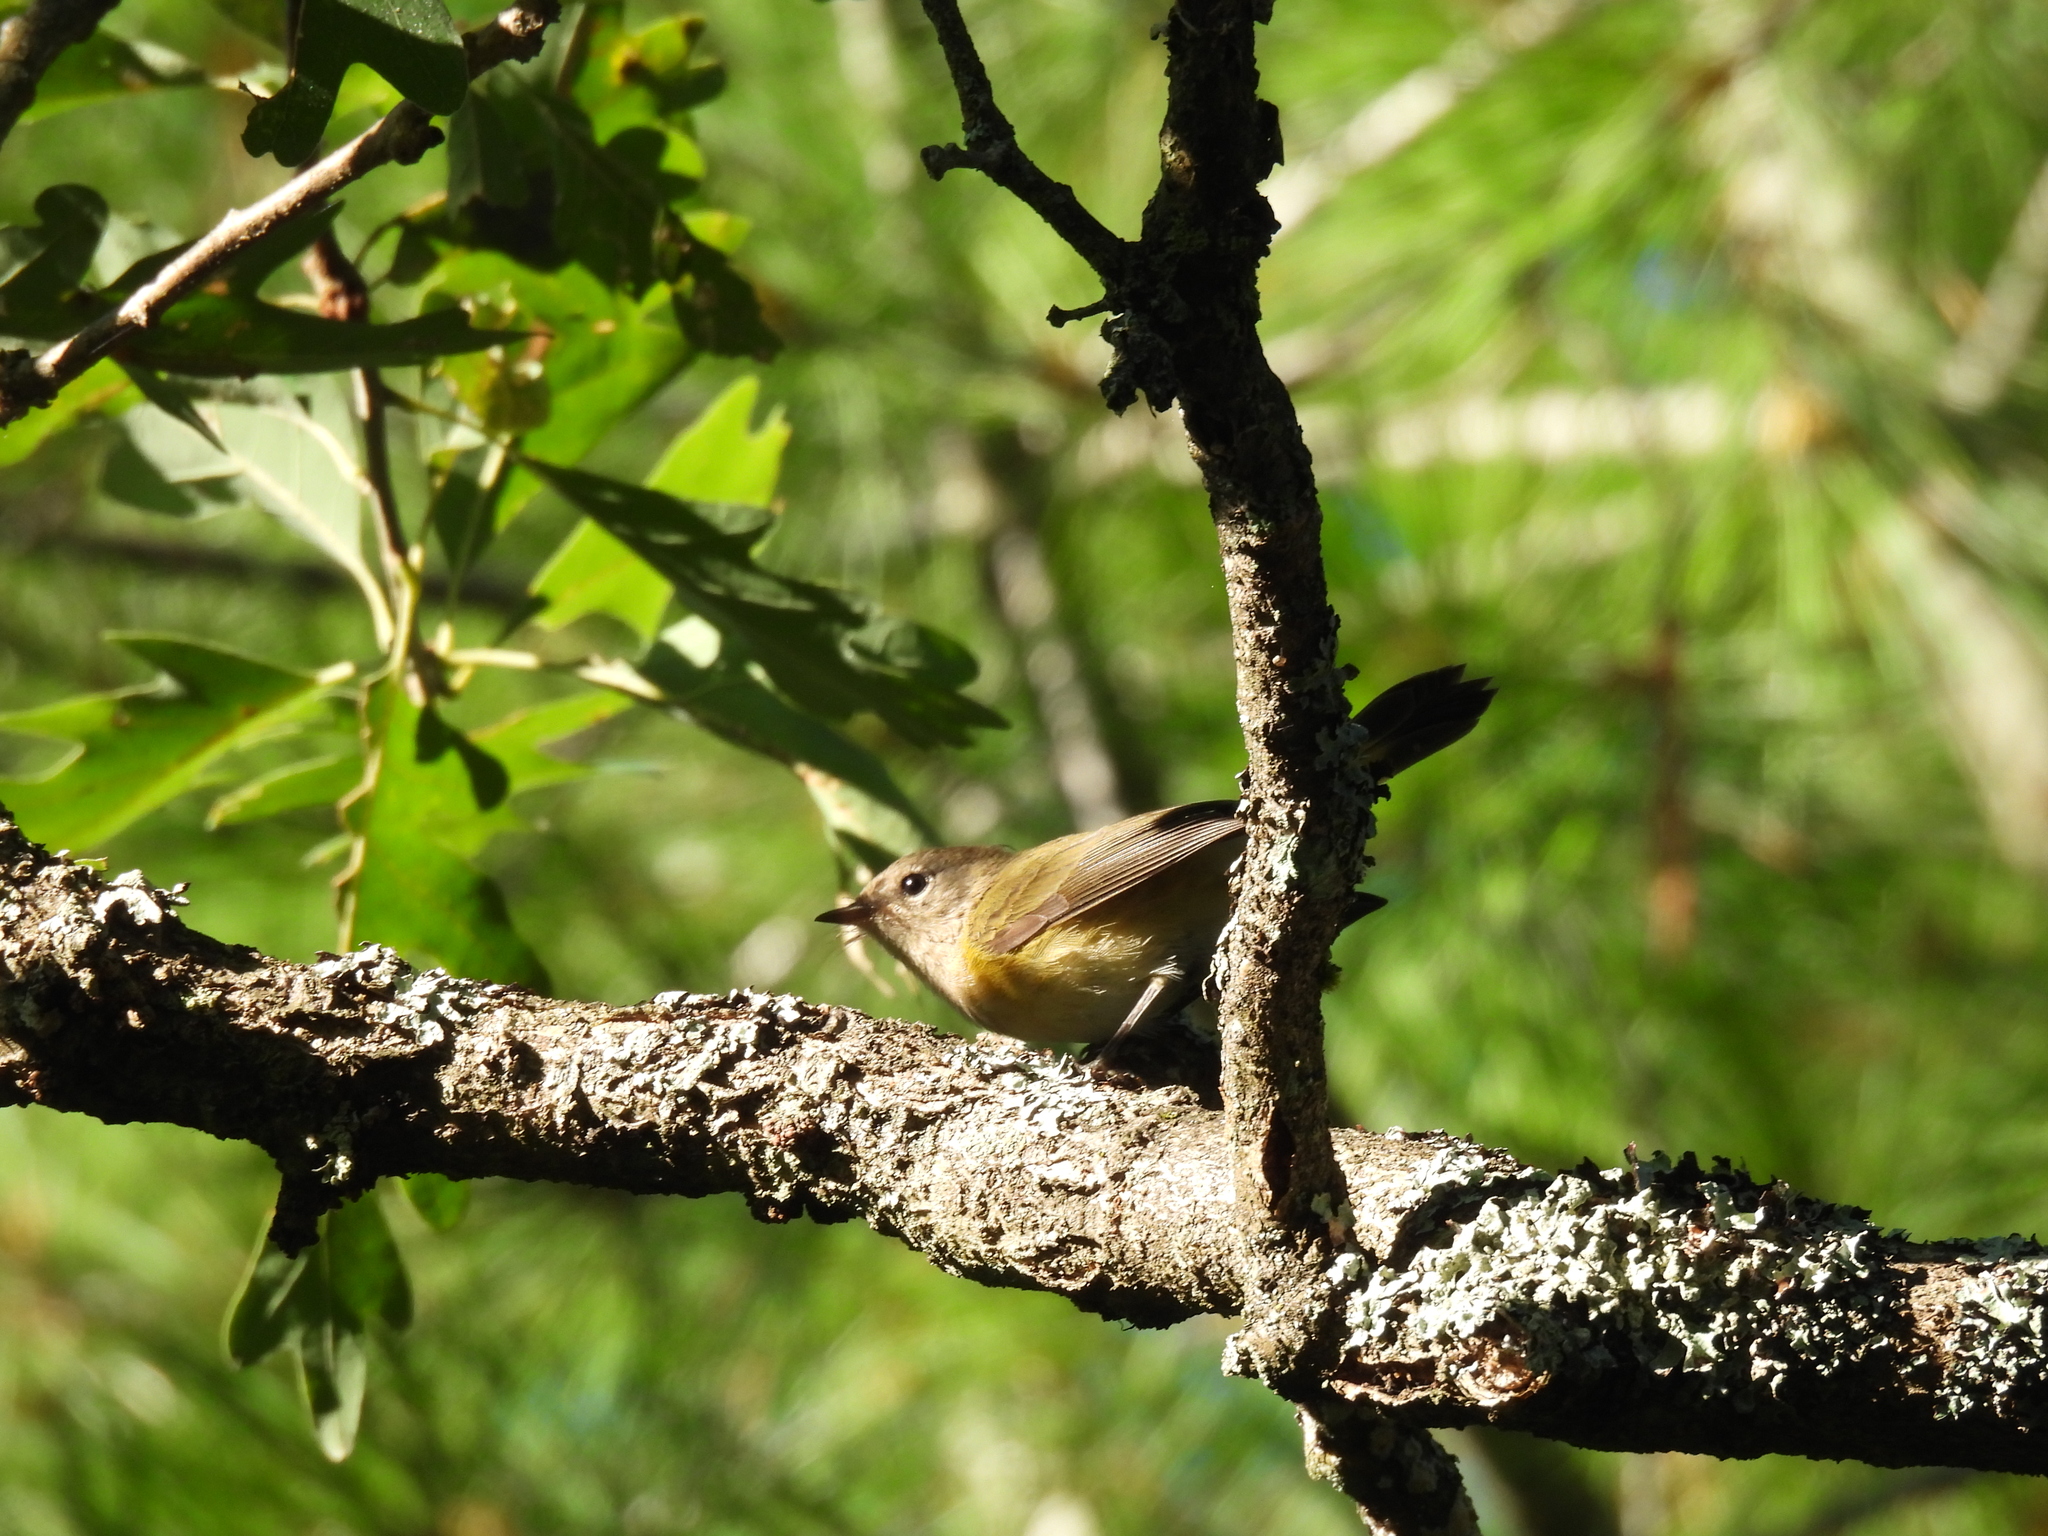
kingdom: Animalia
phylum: Chordata
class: Aves
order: Passeriformes
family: Parulidae
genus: Geothlypis
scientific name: Geothlypis philadelphia
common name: Mourning warbler
